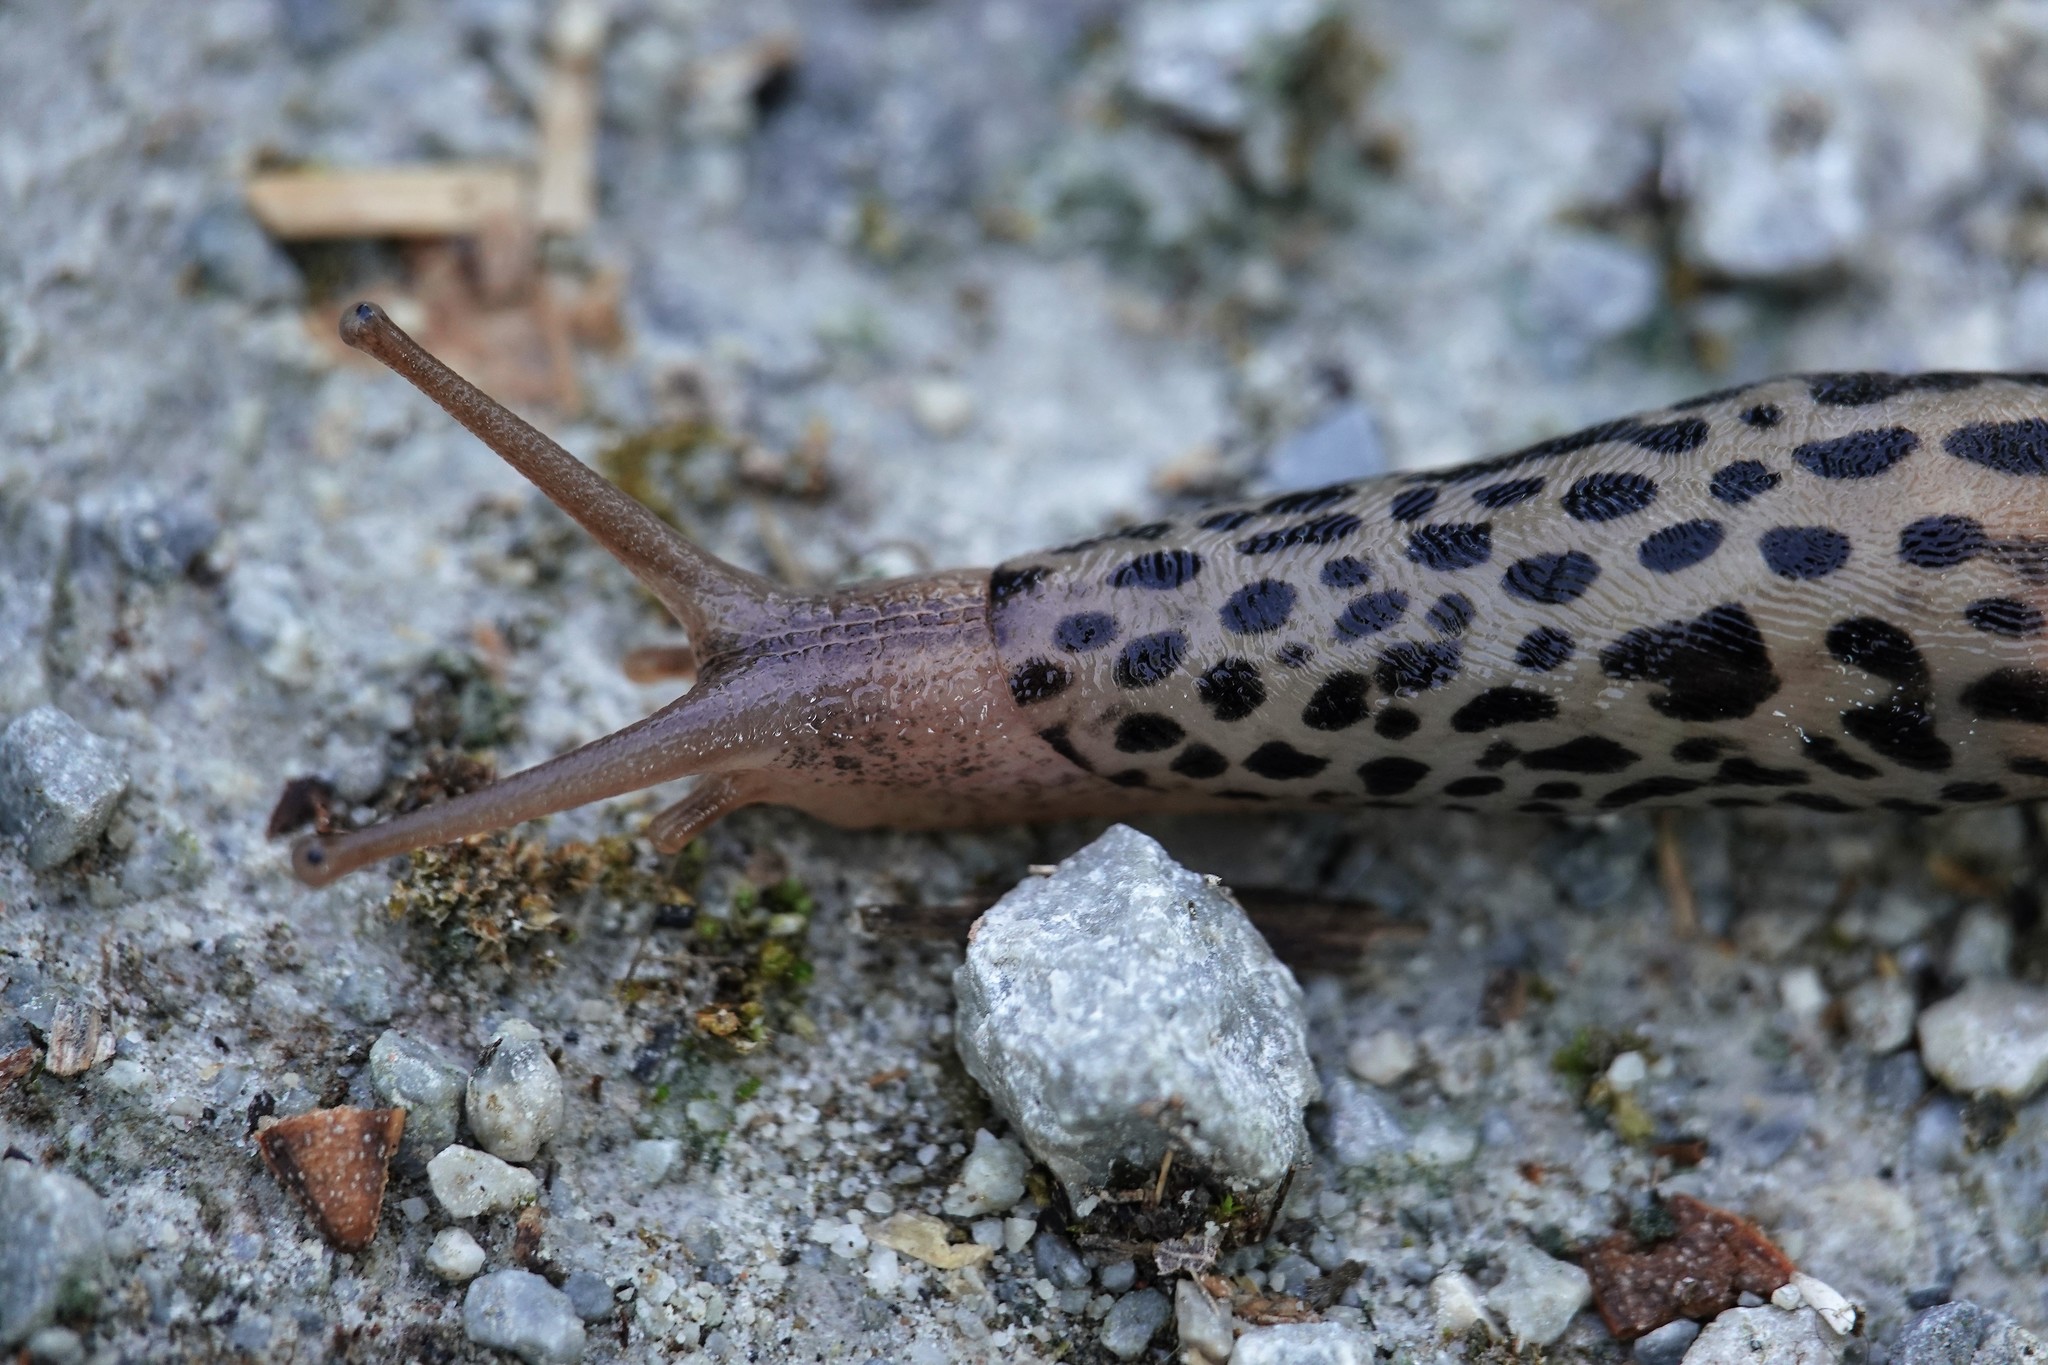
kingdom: Animalia
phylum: Mollusca
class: Gastropoda
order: Stylommatophora
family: Limacidae
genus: Limax
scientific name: Limax maximus
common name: Great grey slug
